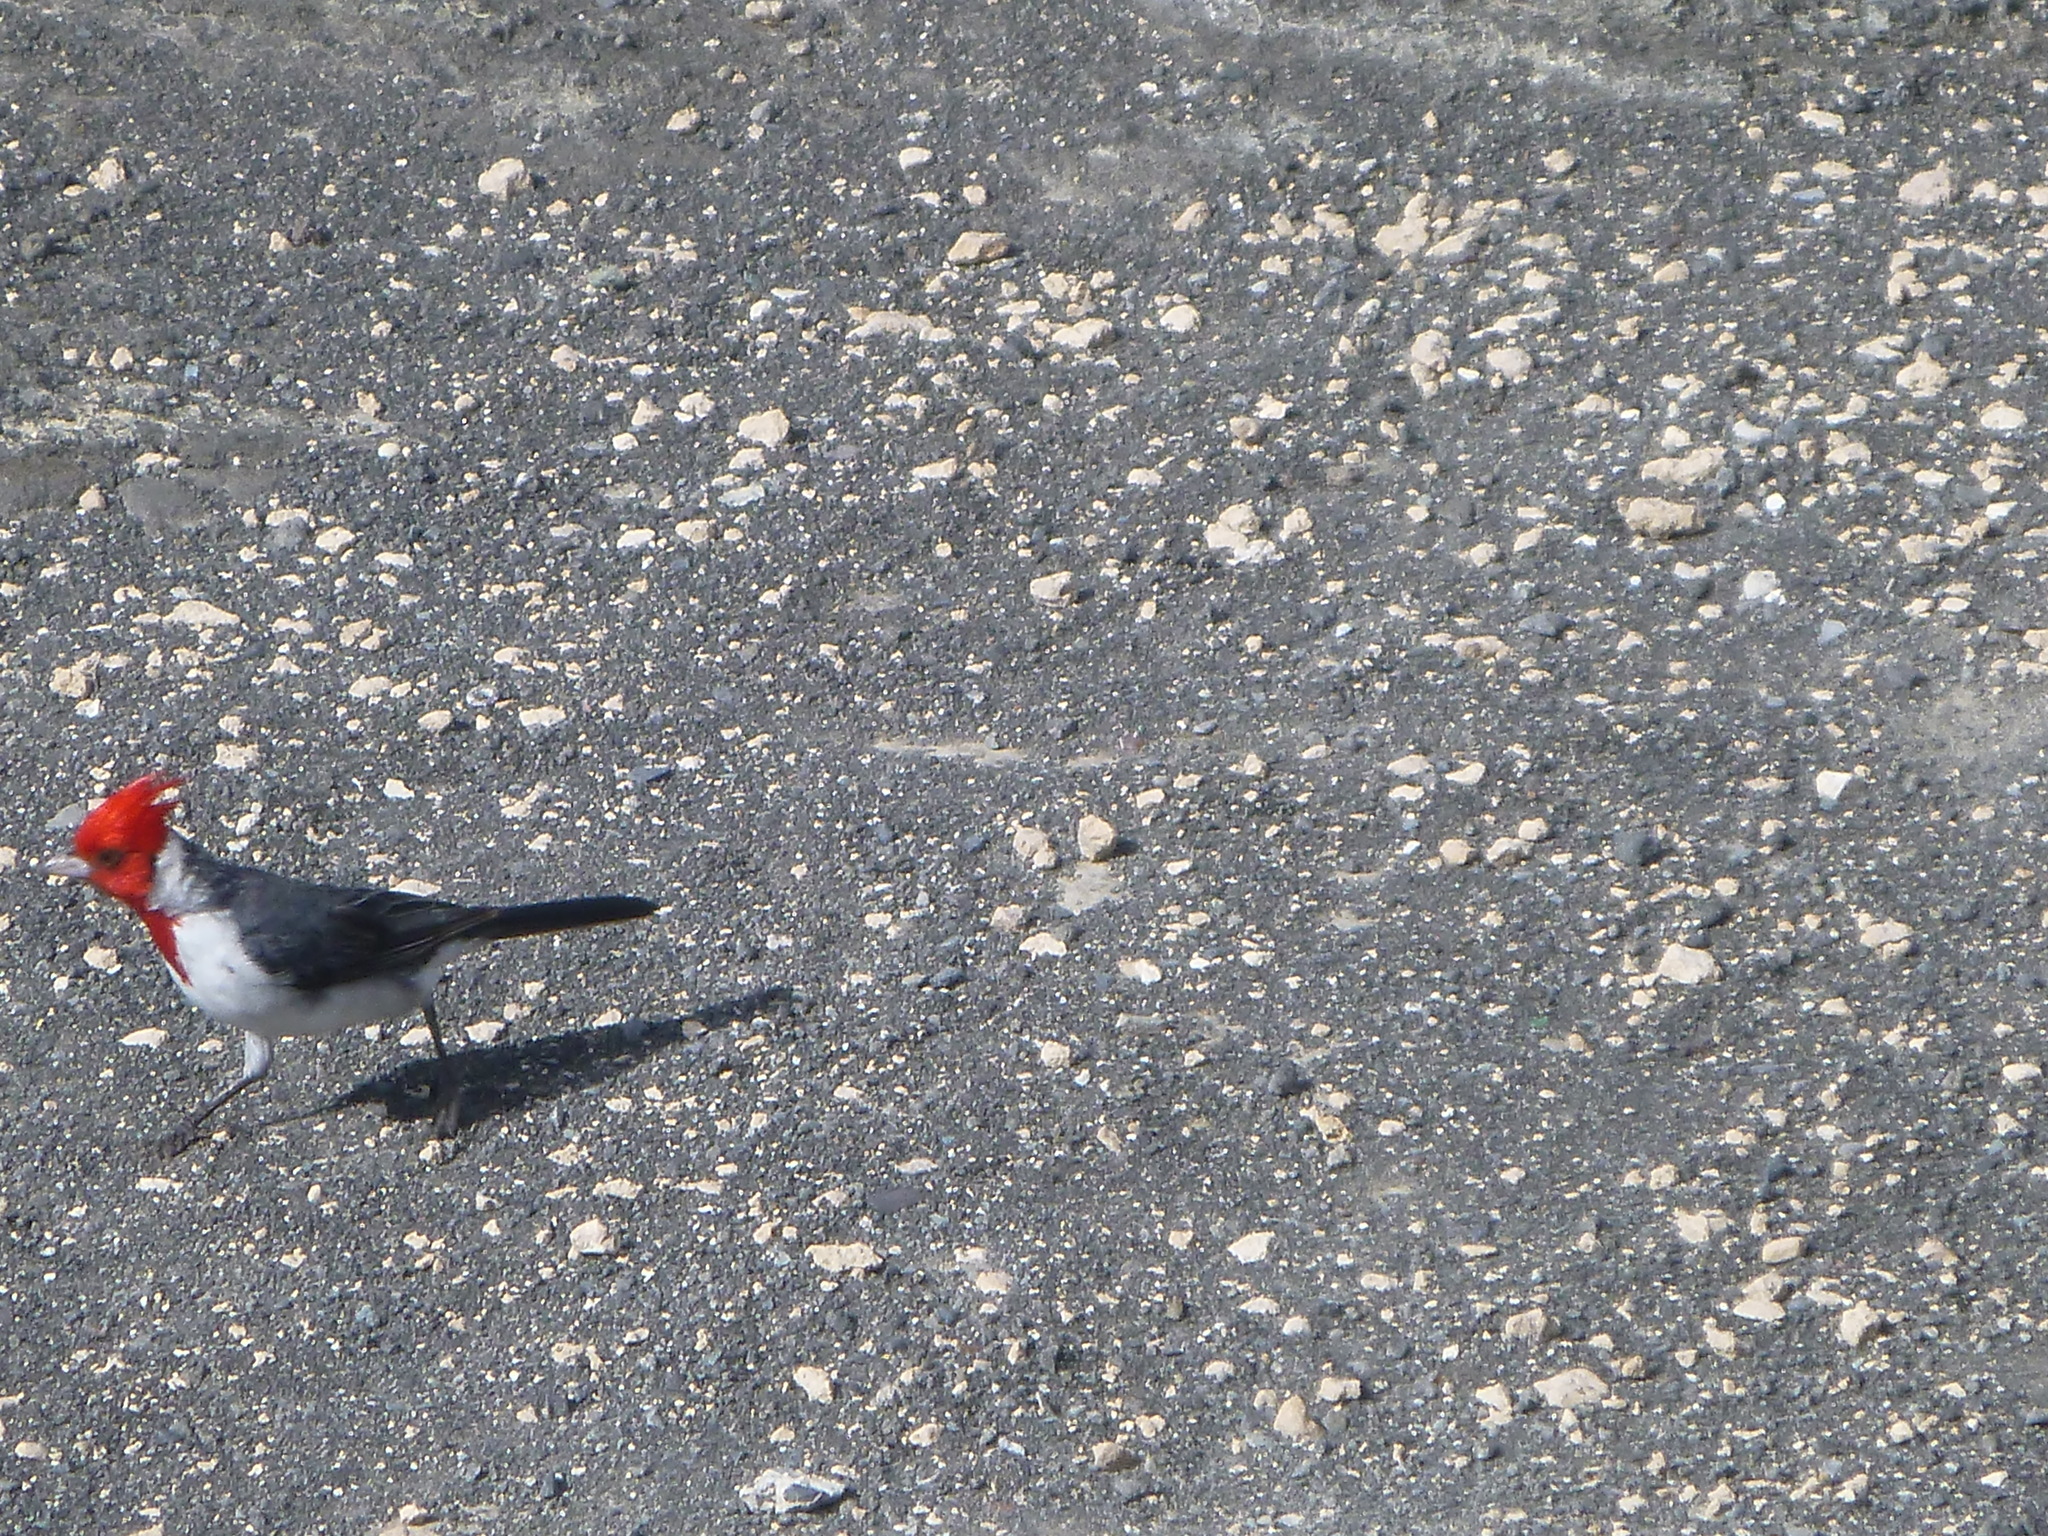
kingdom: Animalia
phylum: Chordata
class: Aves
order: Passeriformes
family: Thraupidae
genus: Paroaria
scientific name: Paroaria coronata
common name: Red-crested cardinal
